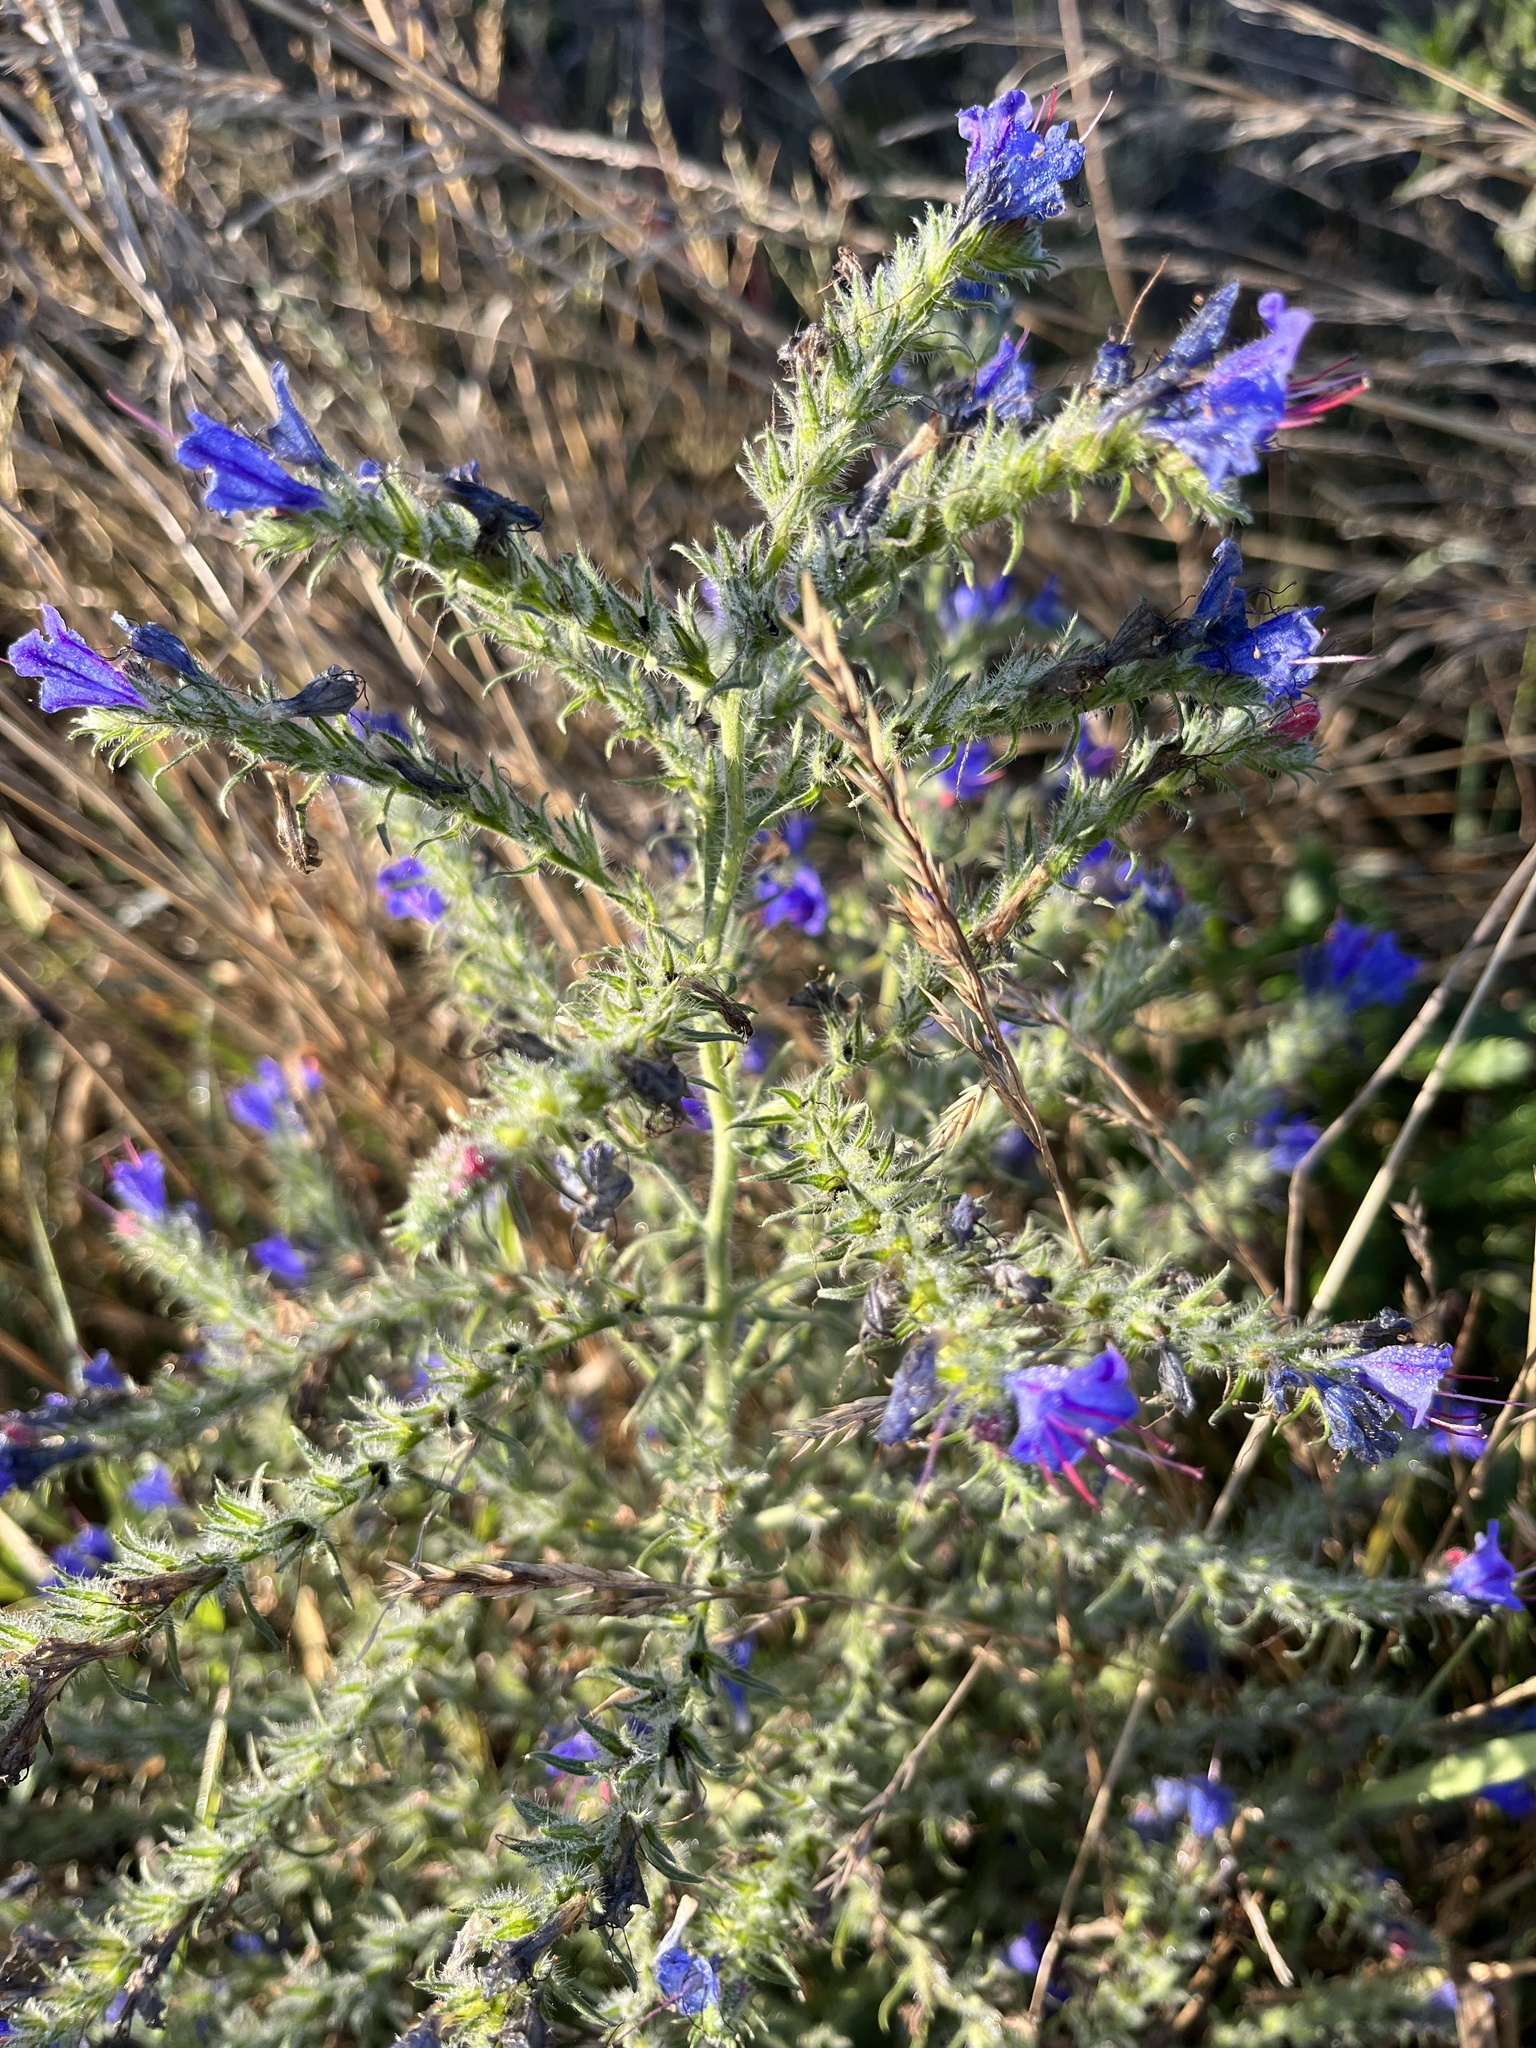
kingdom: Plantae
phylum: Tracheophyta
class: Magnoliopsida
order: Boraginales
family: Boraginaceae
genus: Echium
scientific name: Echium vulgare
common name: Common viper's bugloss
